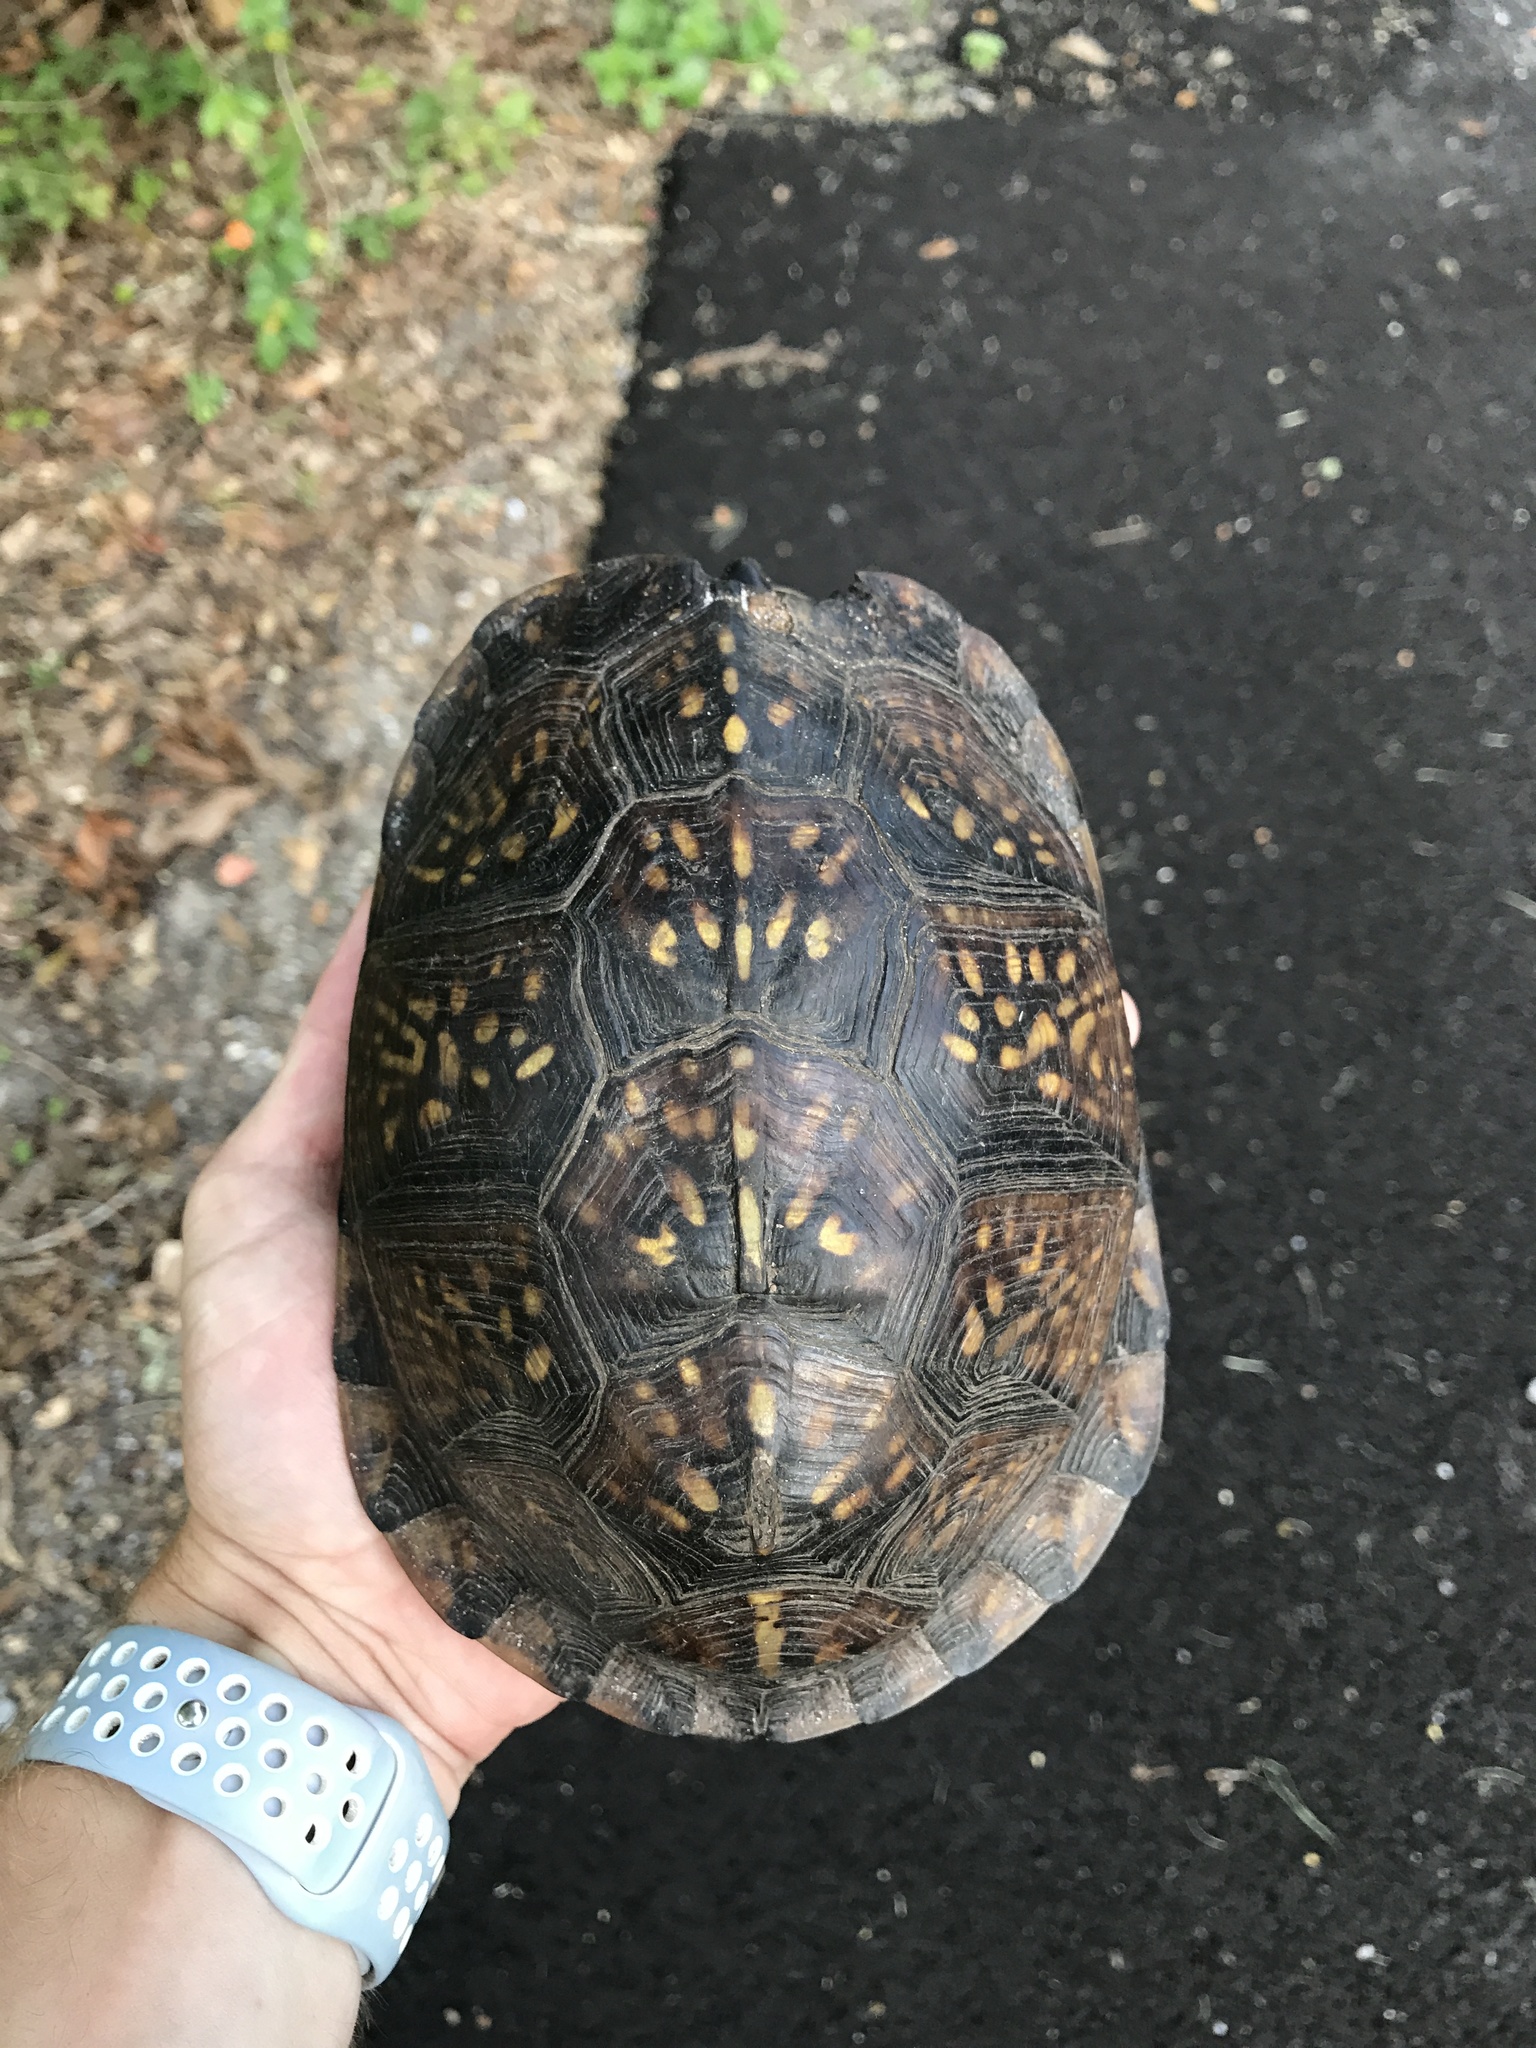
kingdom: Animalia
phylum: Chordata
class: Testudines
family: Emydidae
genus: Terrapene
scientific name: Terrapene carolina
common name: Common box turtle
